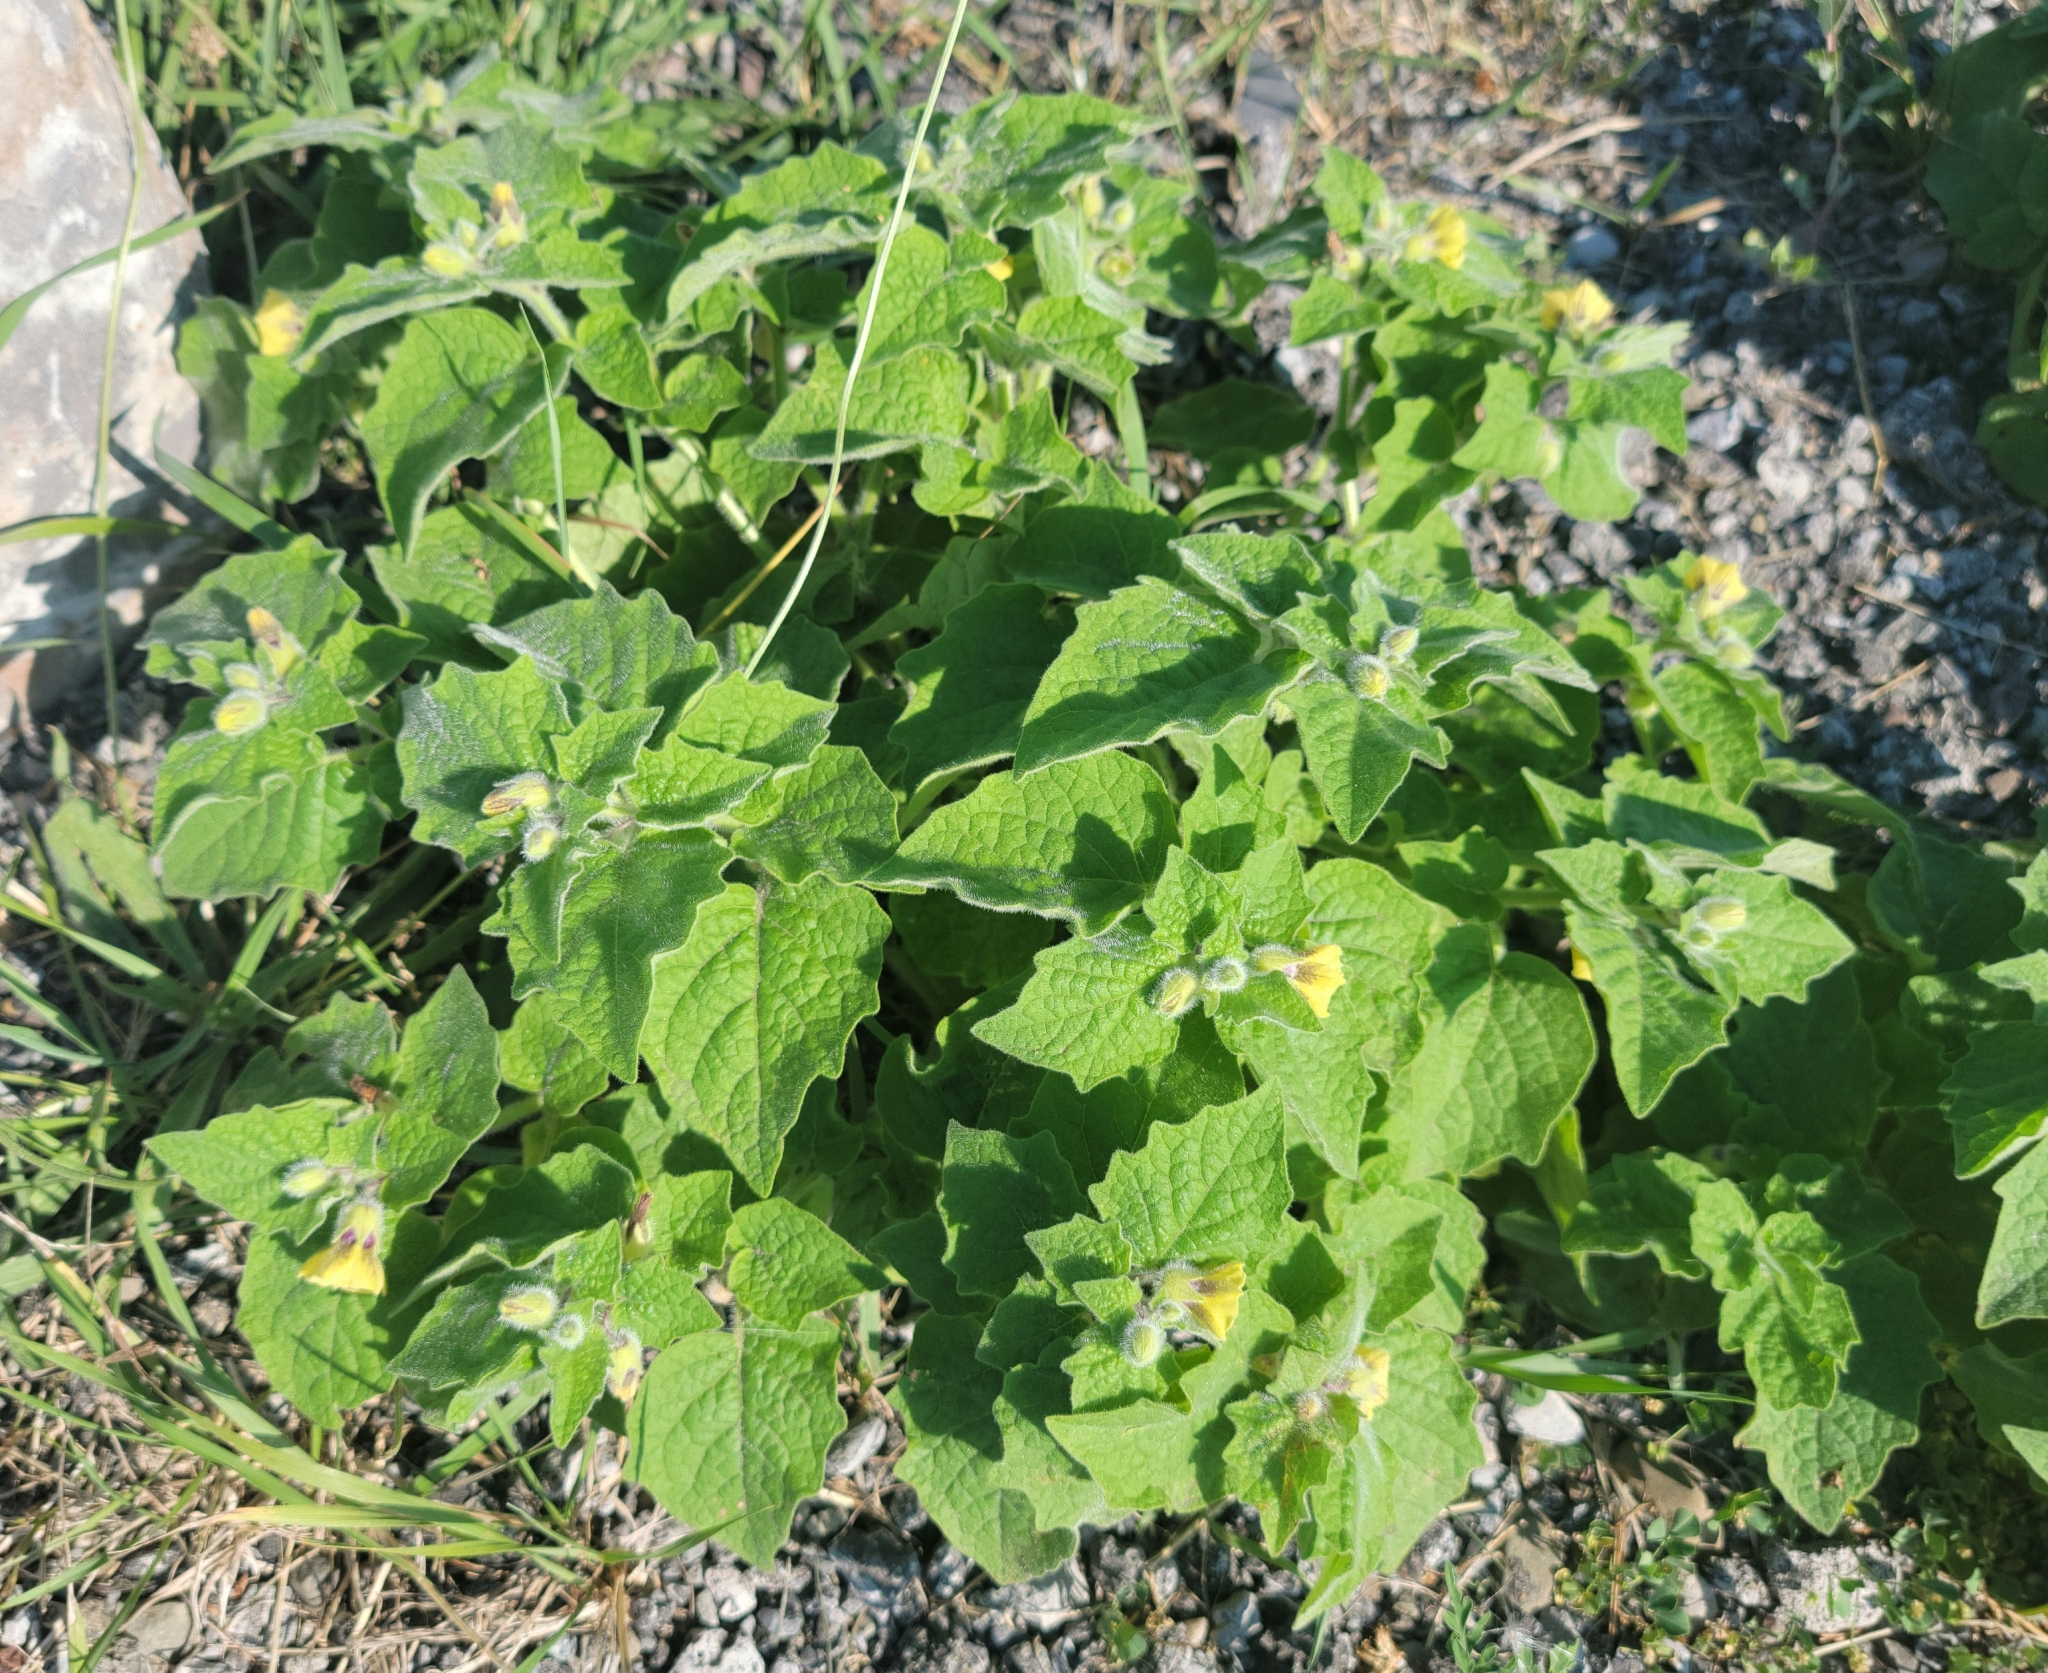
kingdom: Plantae
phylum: Tracheophyta
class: Magnoliopsida
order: Solanales
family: Solanaceae
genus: Physalis
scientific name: Physalis heterophylla
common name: Clammy ground-cherry
